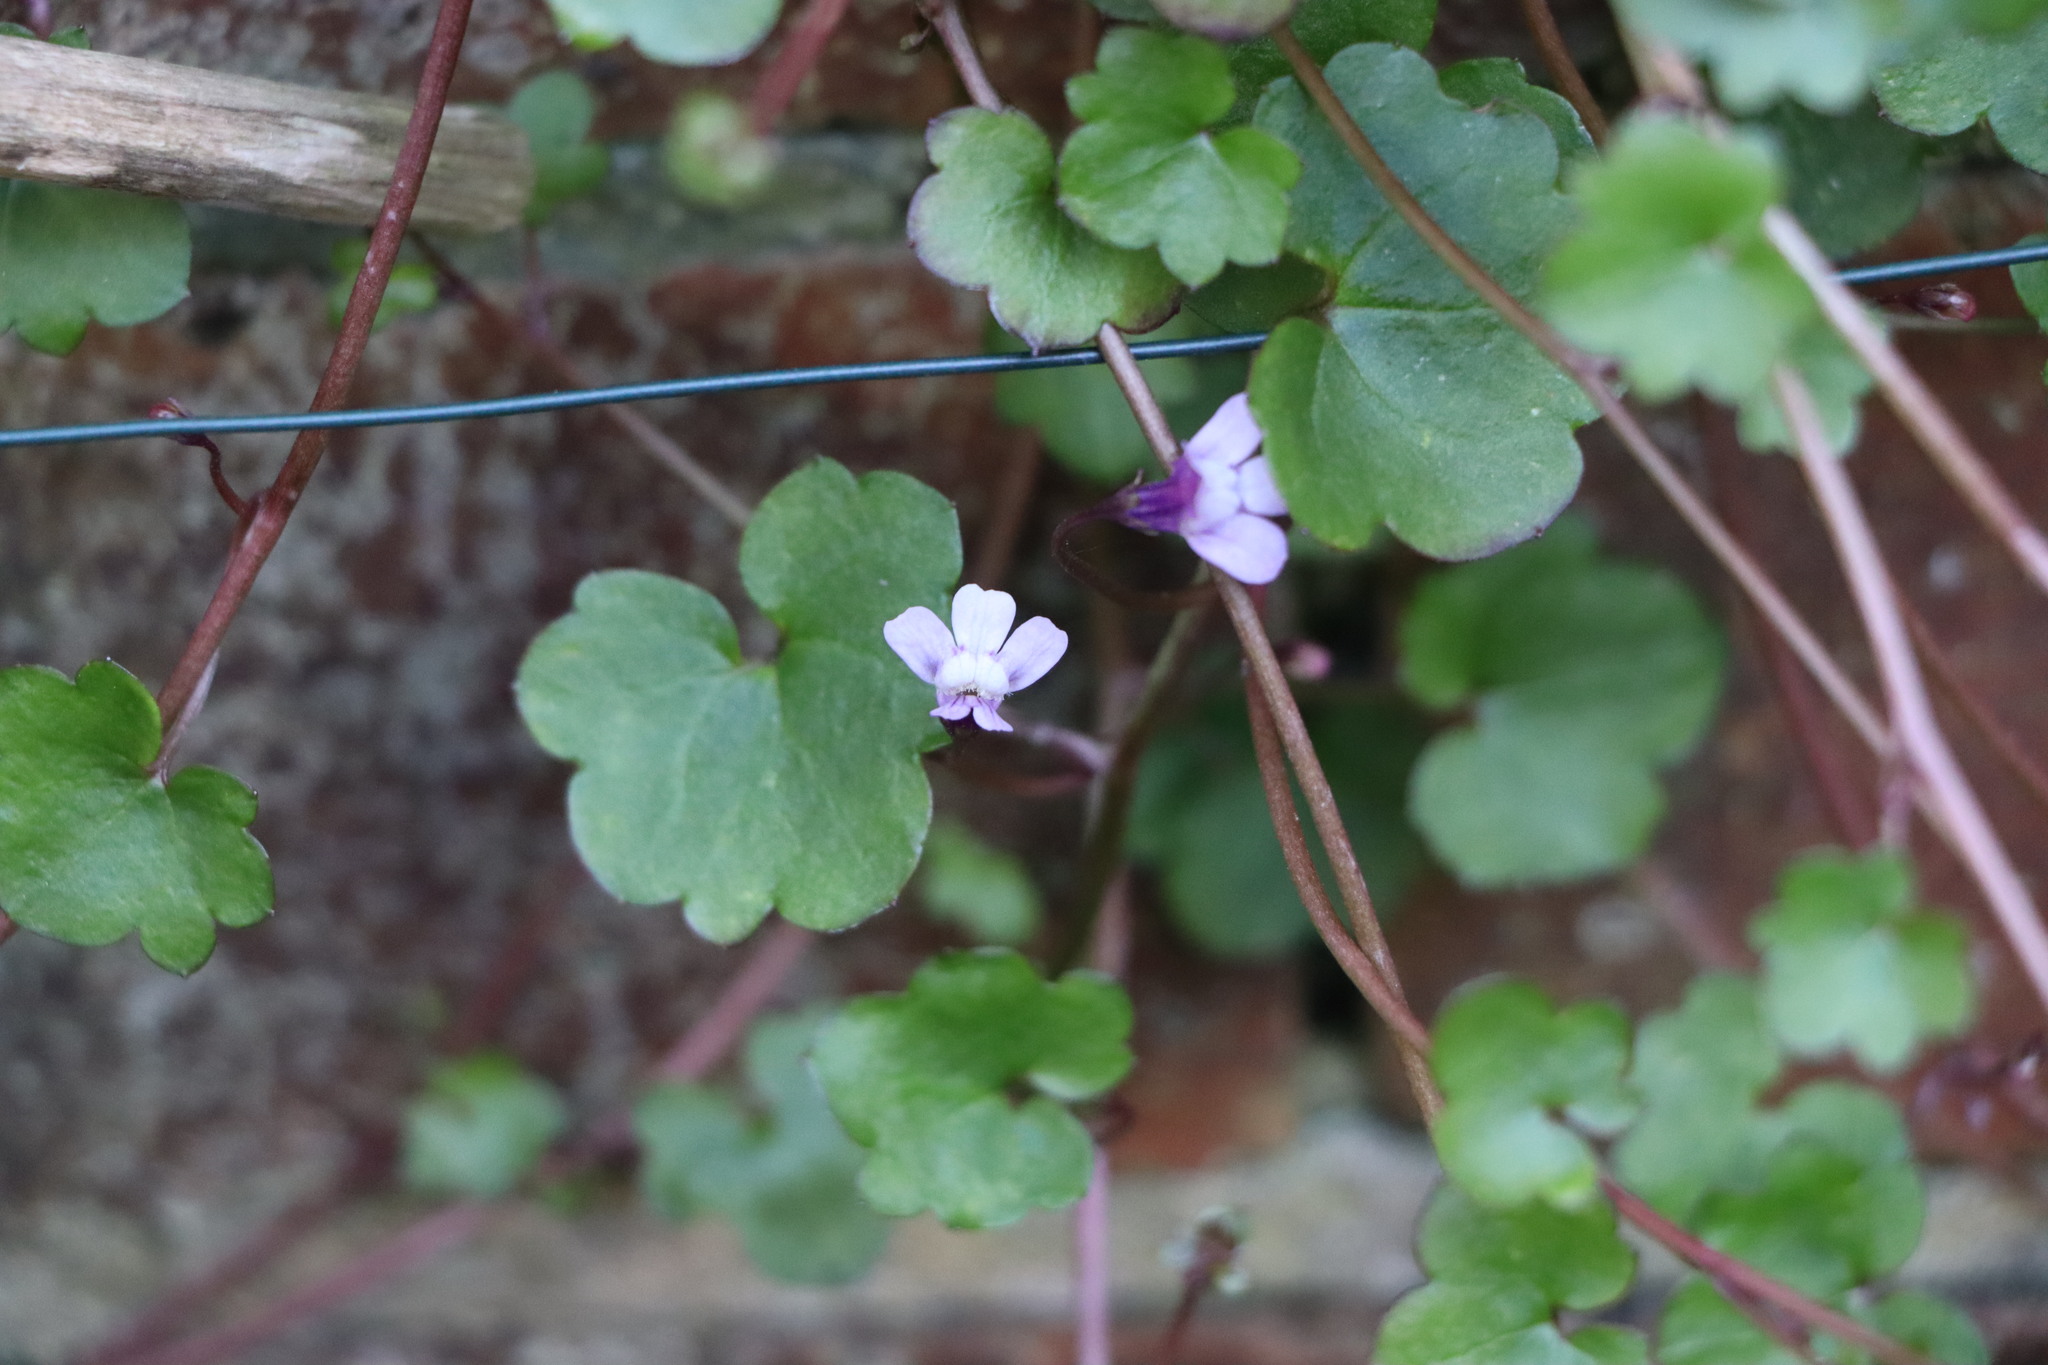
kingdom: Plantae
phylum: Tracheophyta
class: Magnoliopsida
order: Lamiales
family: Plantaginaceae
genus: Cymbalaria
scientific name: Cymbalaria muralis
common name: Ivy-leaved toadflax
